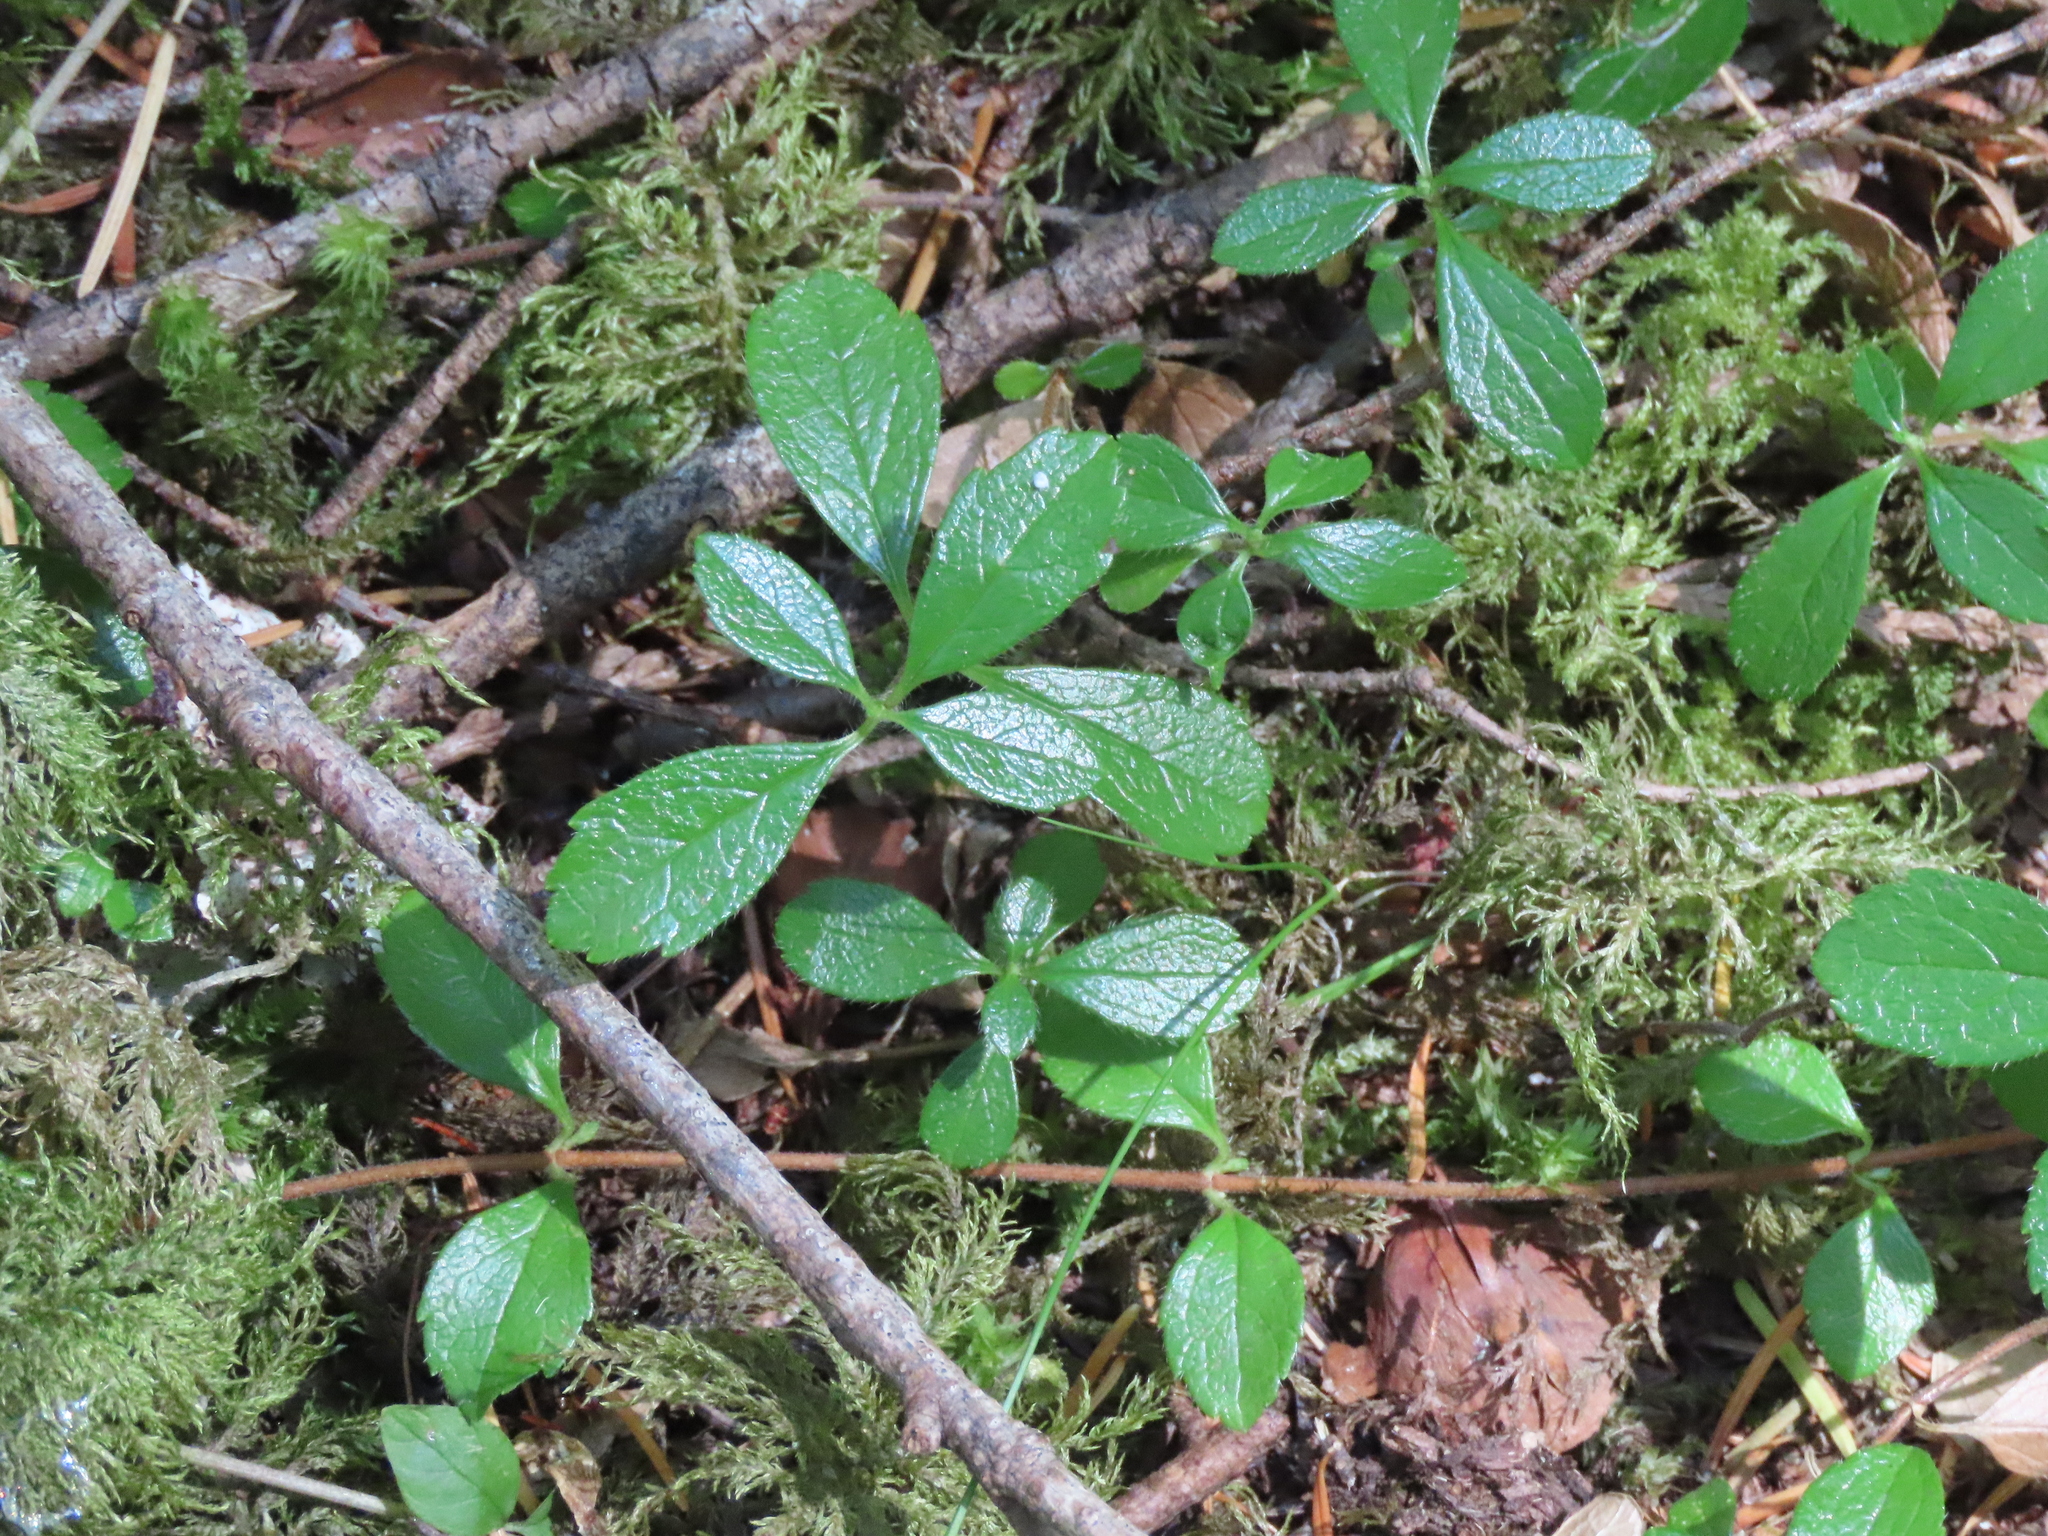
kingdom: Plantae
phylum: Tracheophyta
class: Magnoliopsida
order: Dipsacales
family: Caprifoliaceae
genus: Linnaea
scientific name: Linnaea borealis
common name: Twinflower
